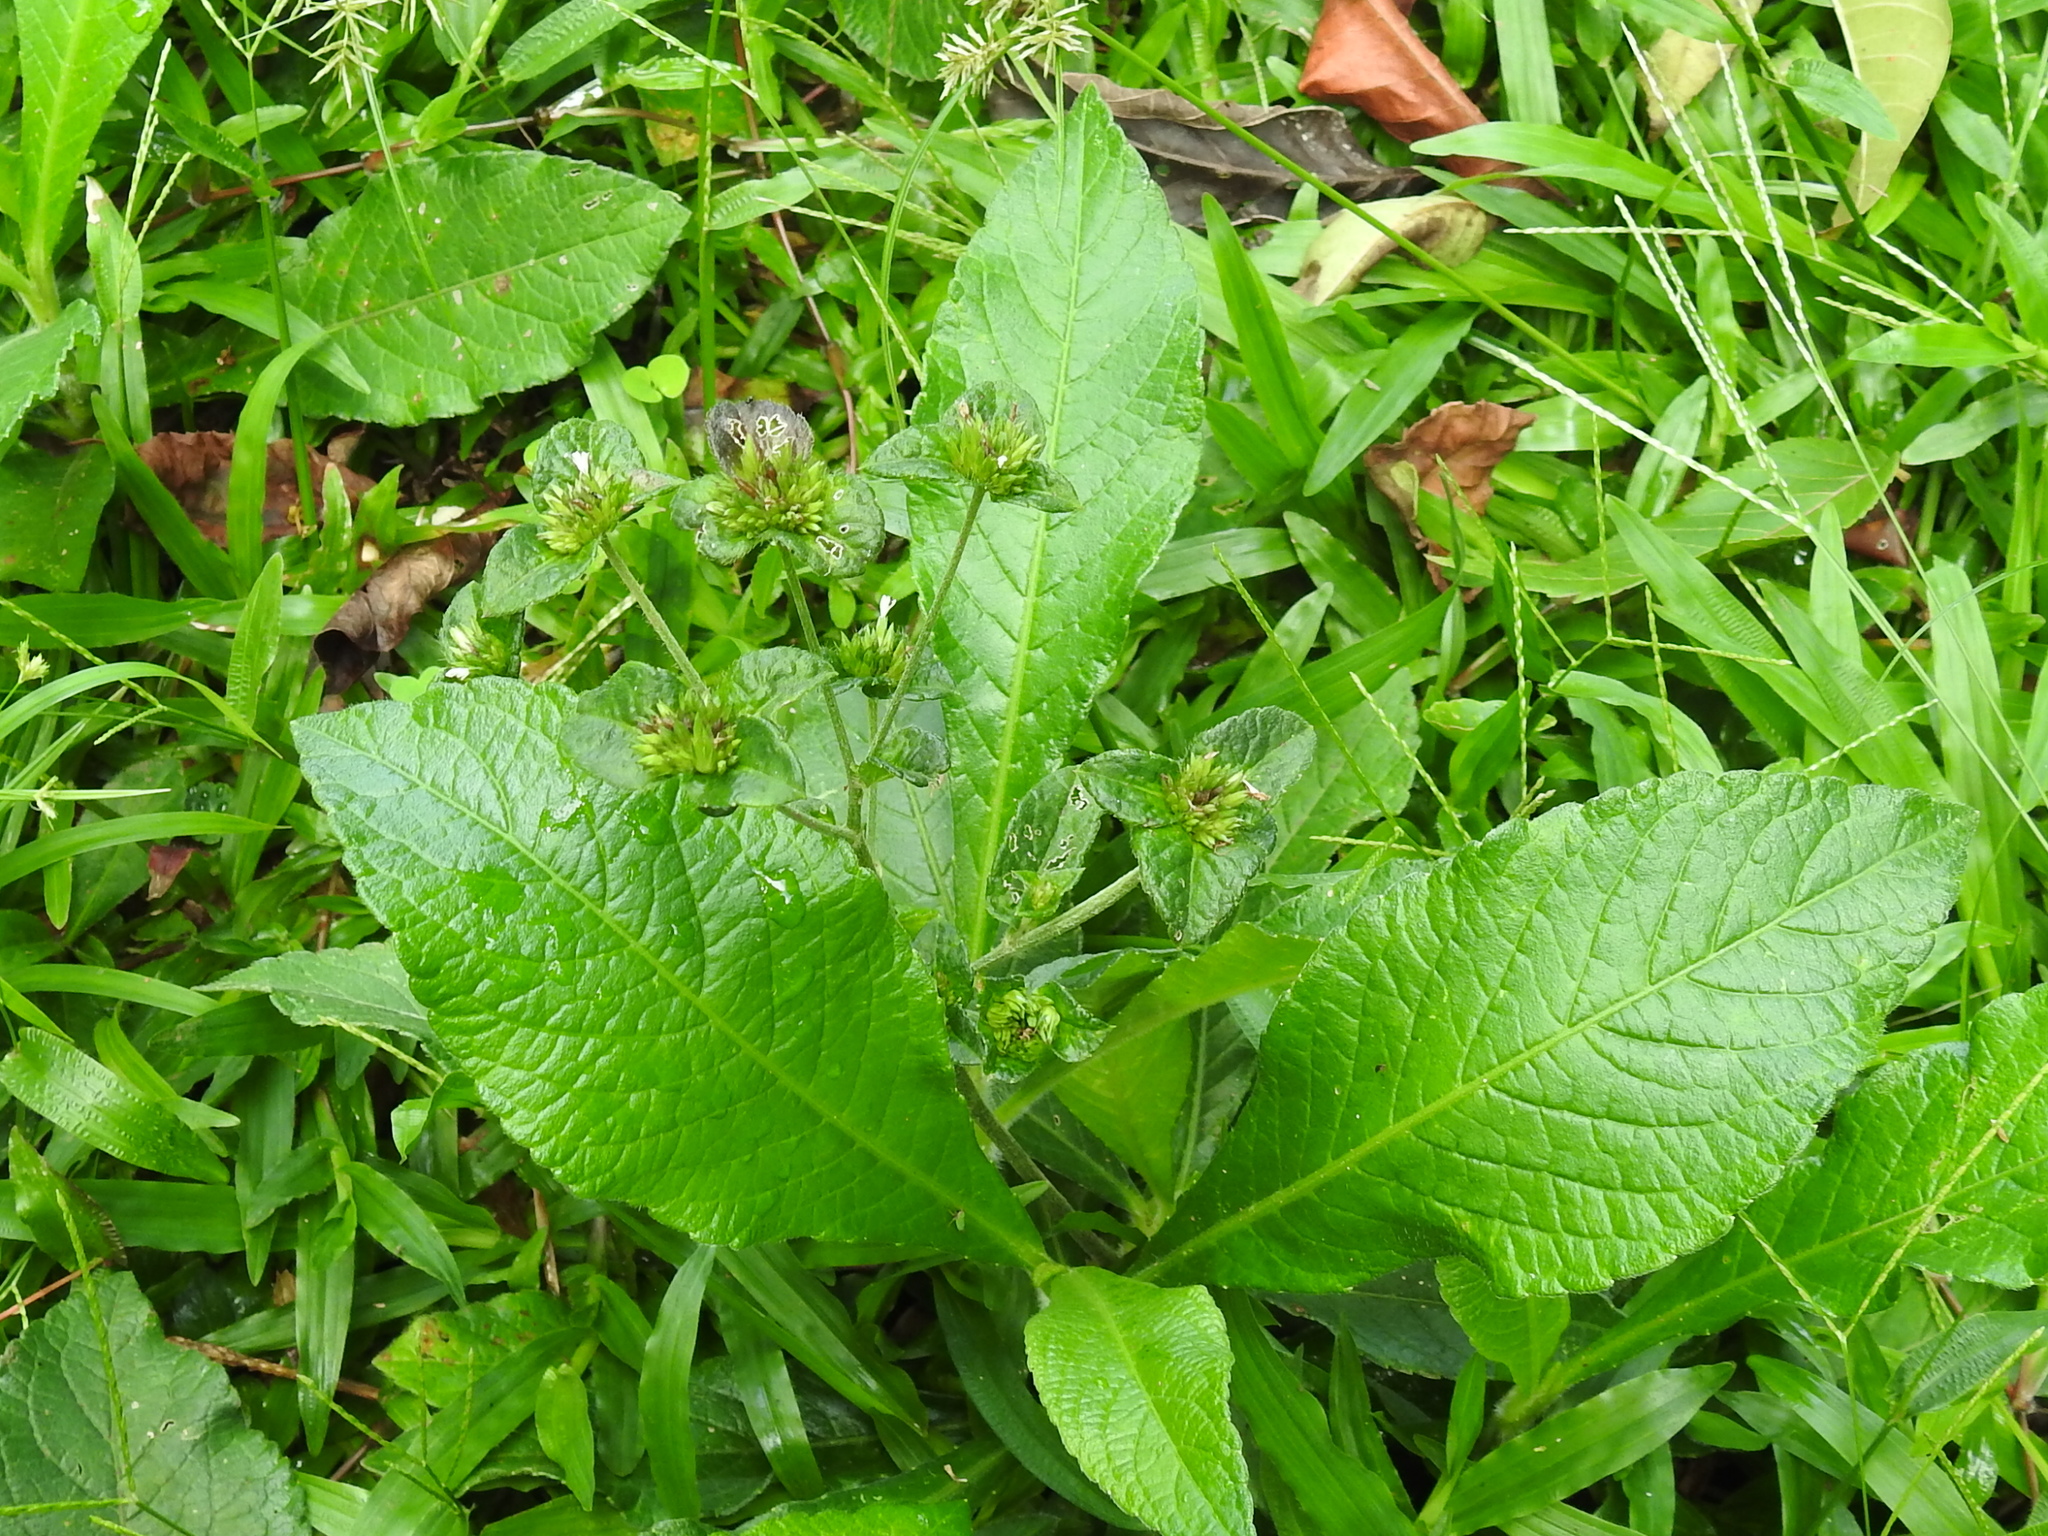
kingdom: Plantae
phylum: Tracheophyta
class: Magnoliopsida
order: Asterales
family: Asteraceae
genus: Elephantopus
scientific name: Elephantopus mollis
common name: Soft elephantsfoot
